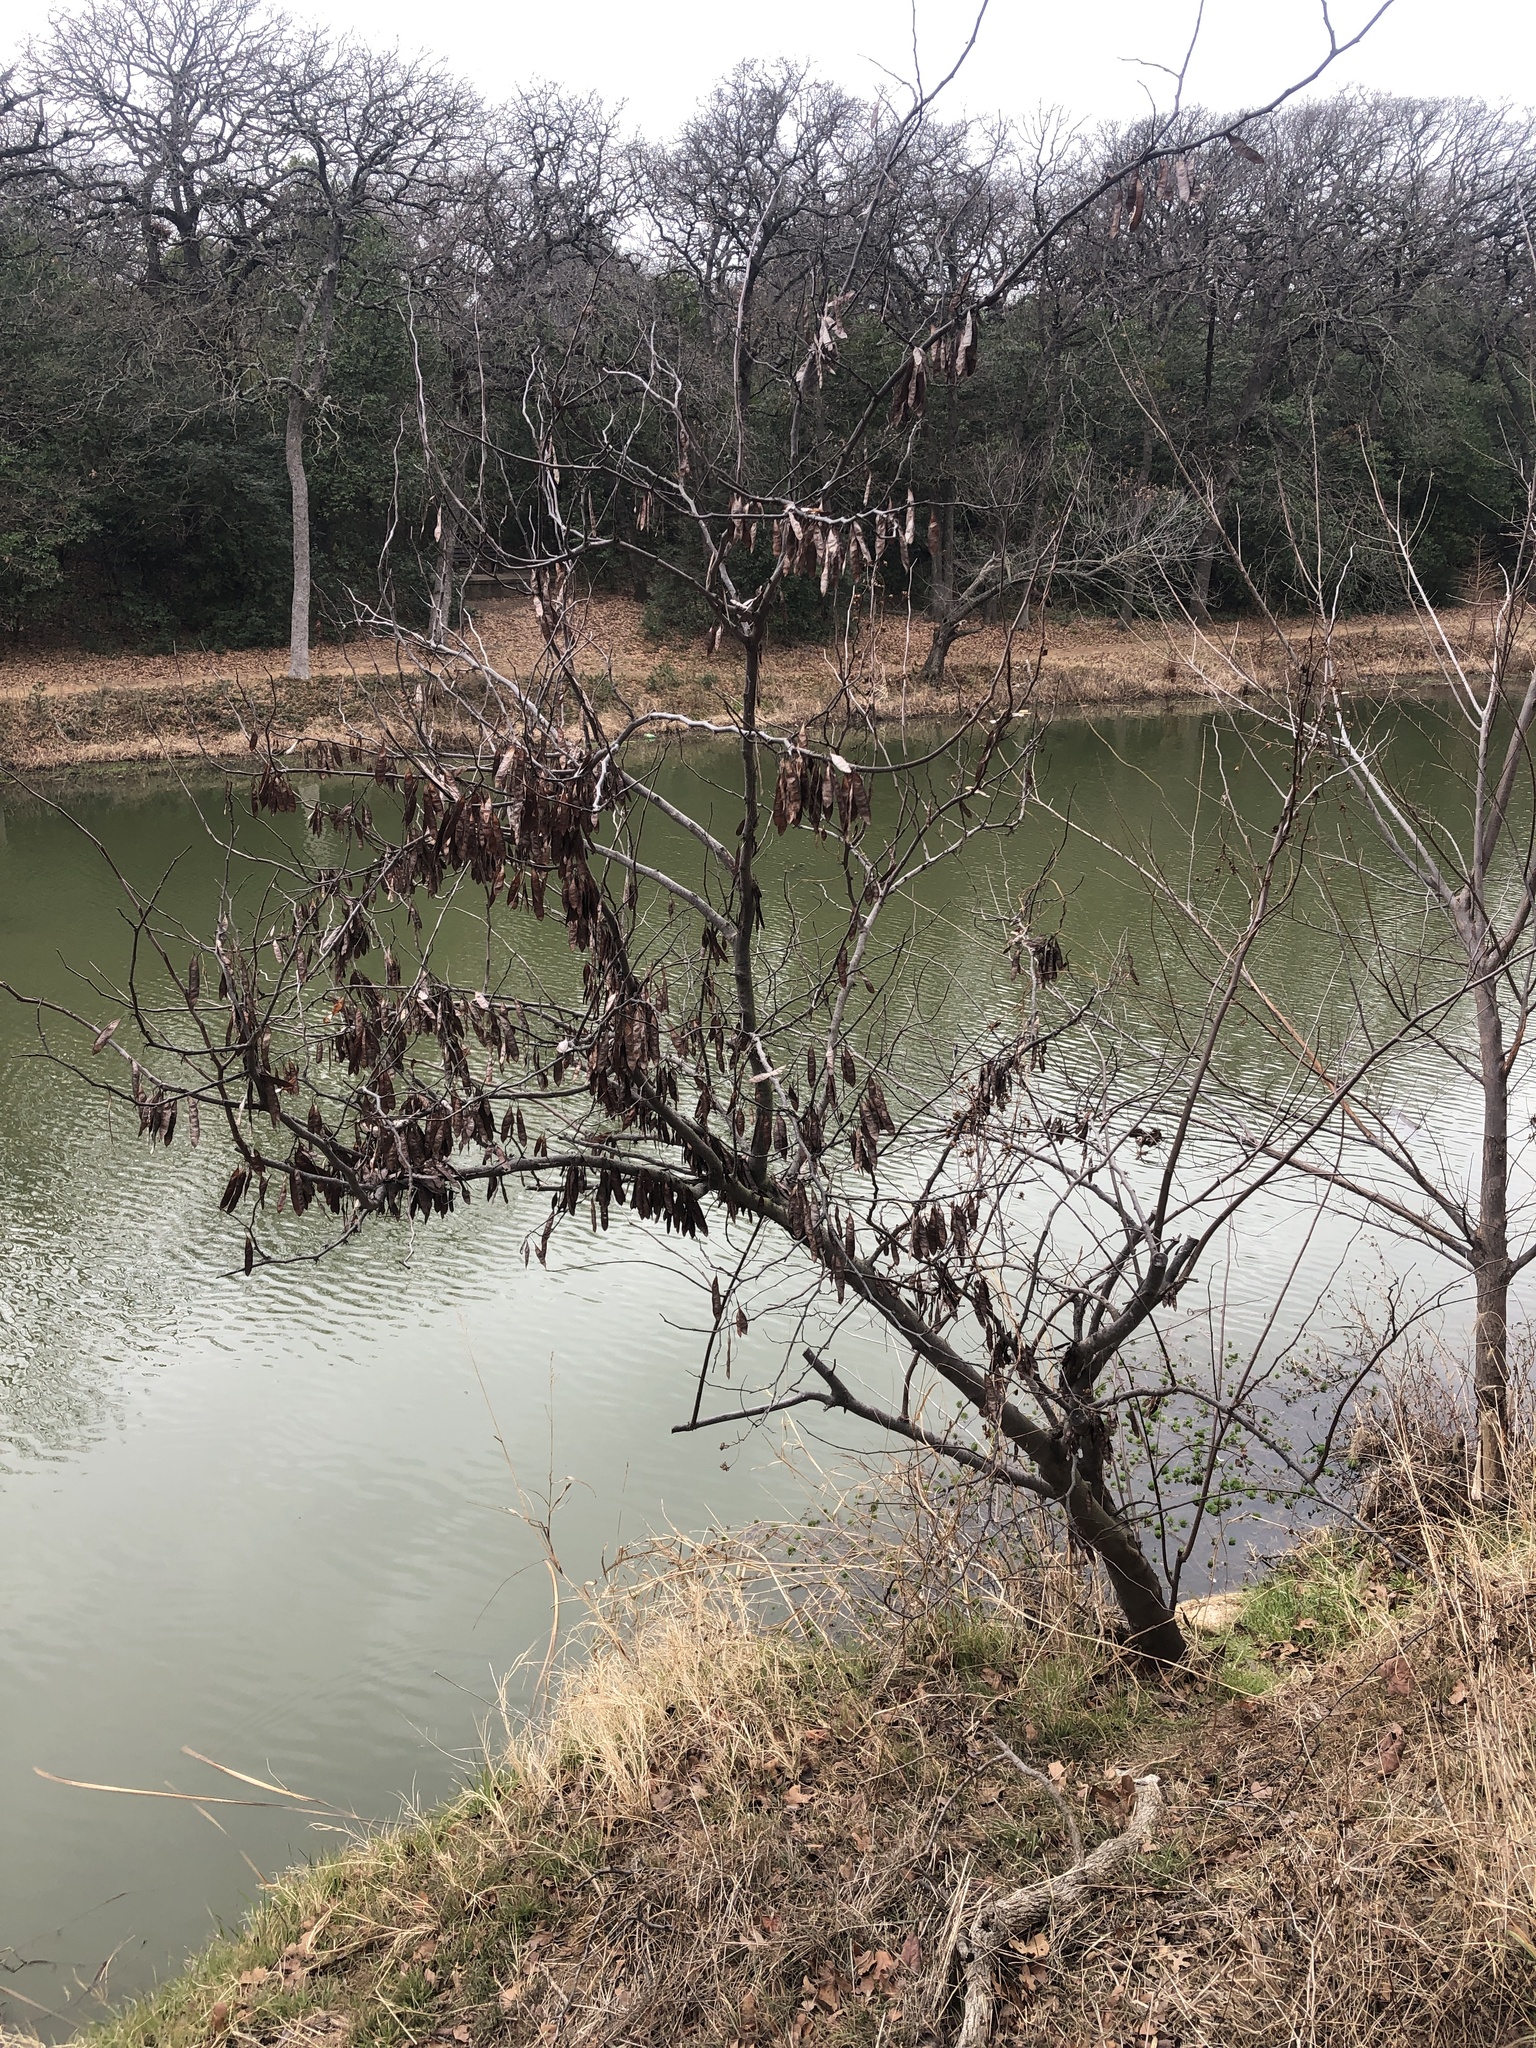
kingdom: Plantae
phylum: Tracheophyta
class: Magnoliopsida
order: Fabales
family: Fabaceae
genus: Cercis
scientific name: Cercis canadensis
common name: Eastern redbud
